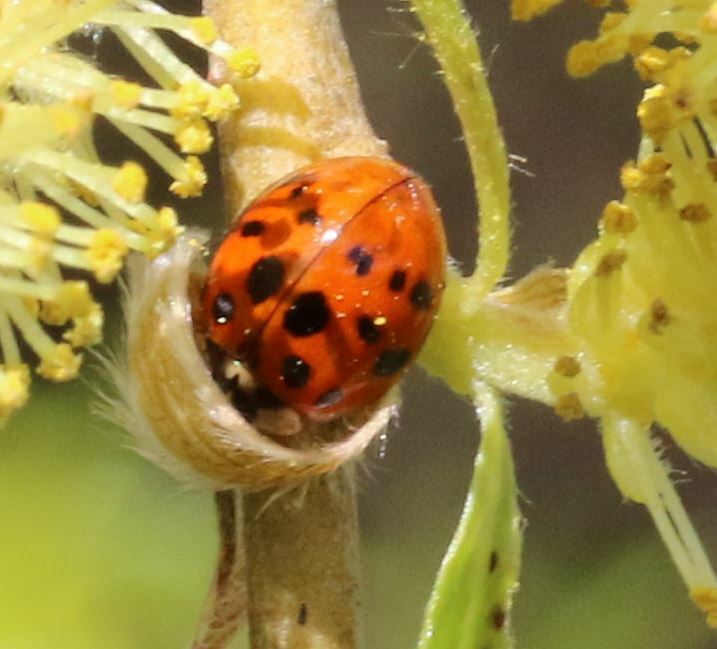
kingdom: Animalia
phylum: Arthropoda
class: Insecta
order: Coleoptera
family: Coccinellidae
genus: Harmonia
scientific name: Harmonia axyridis
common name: Harlequin ladybird
